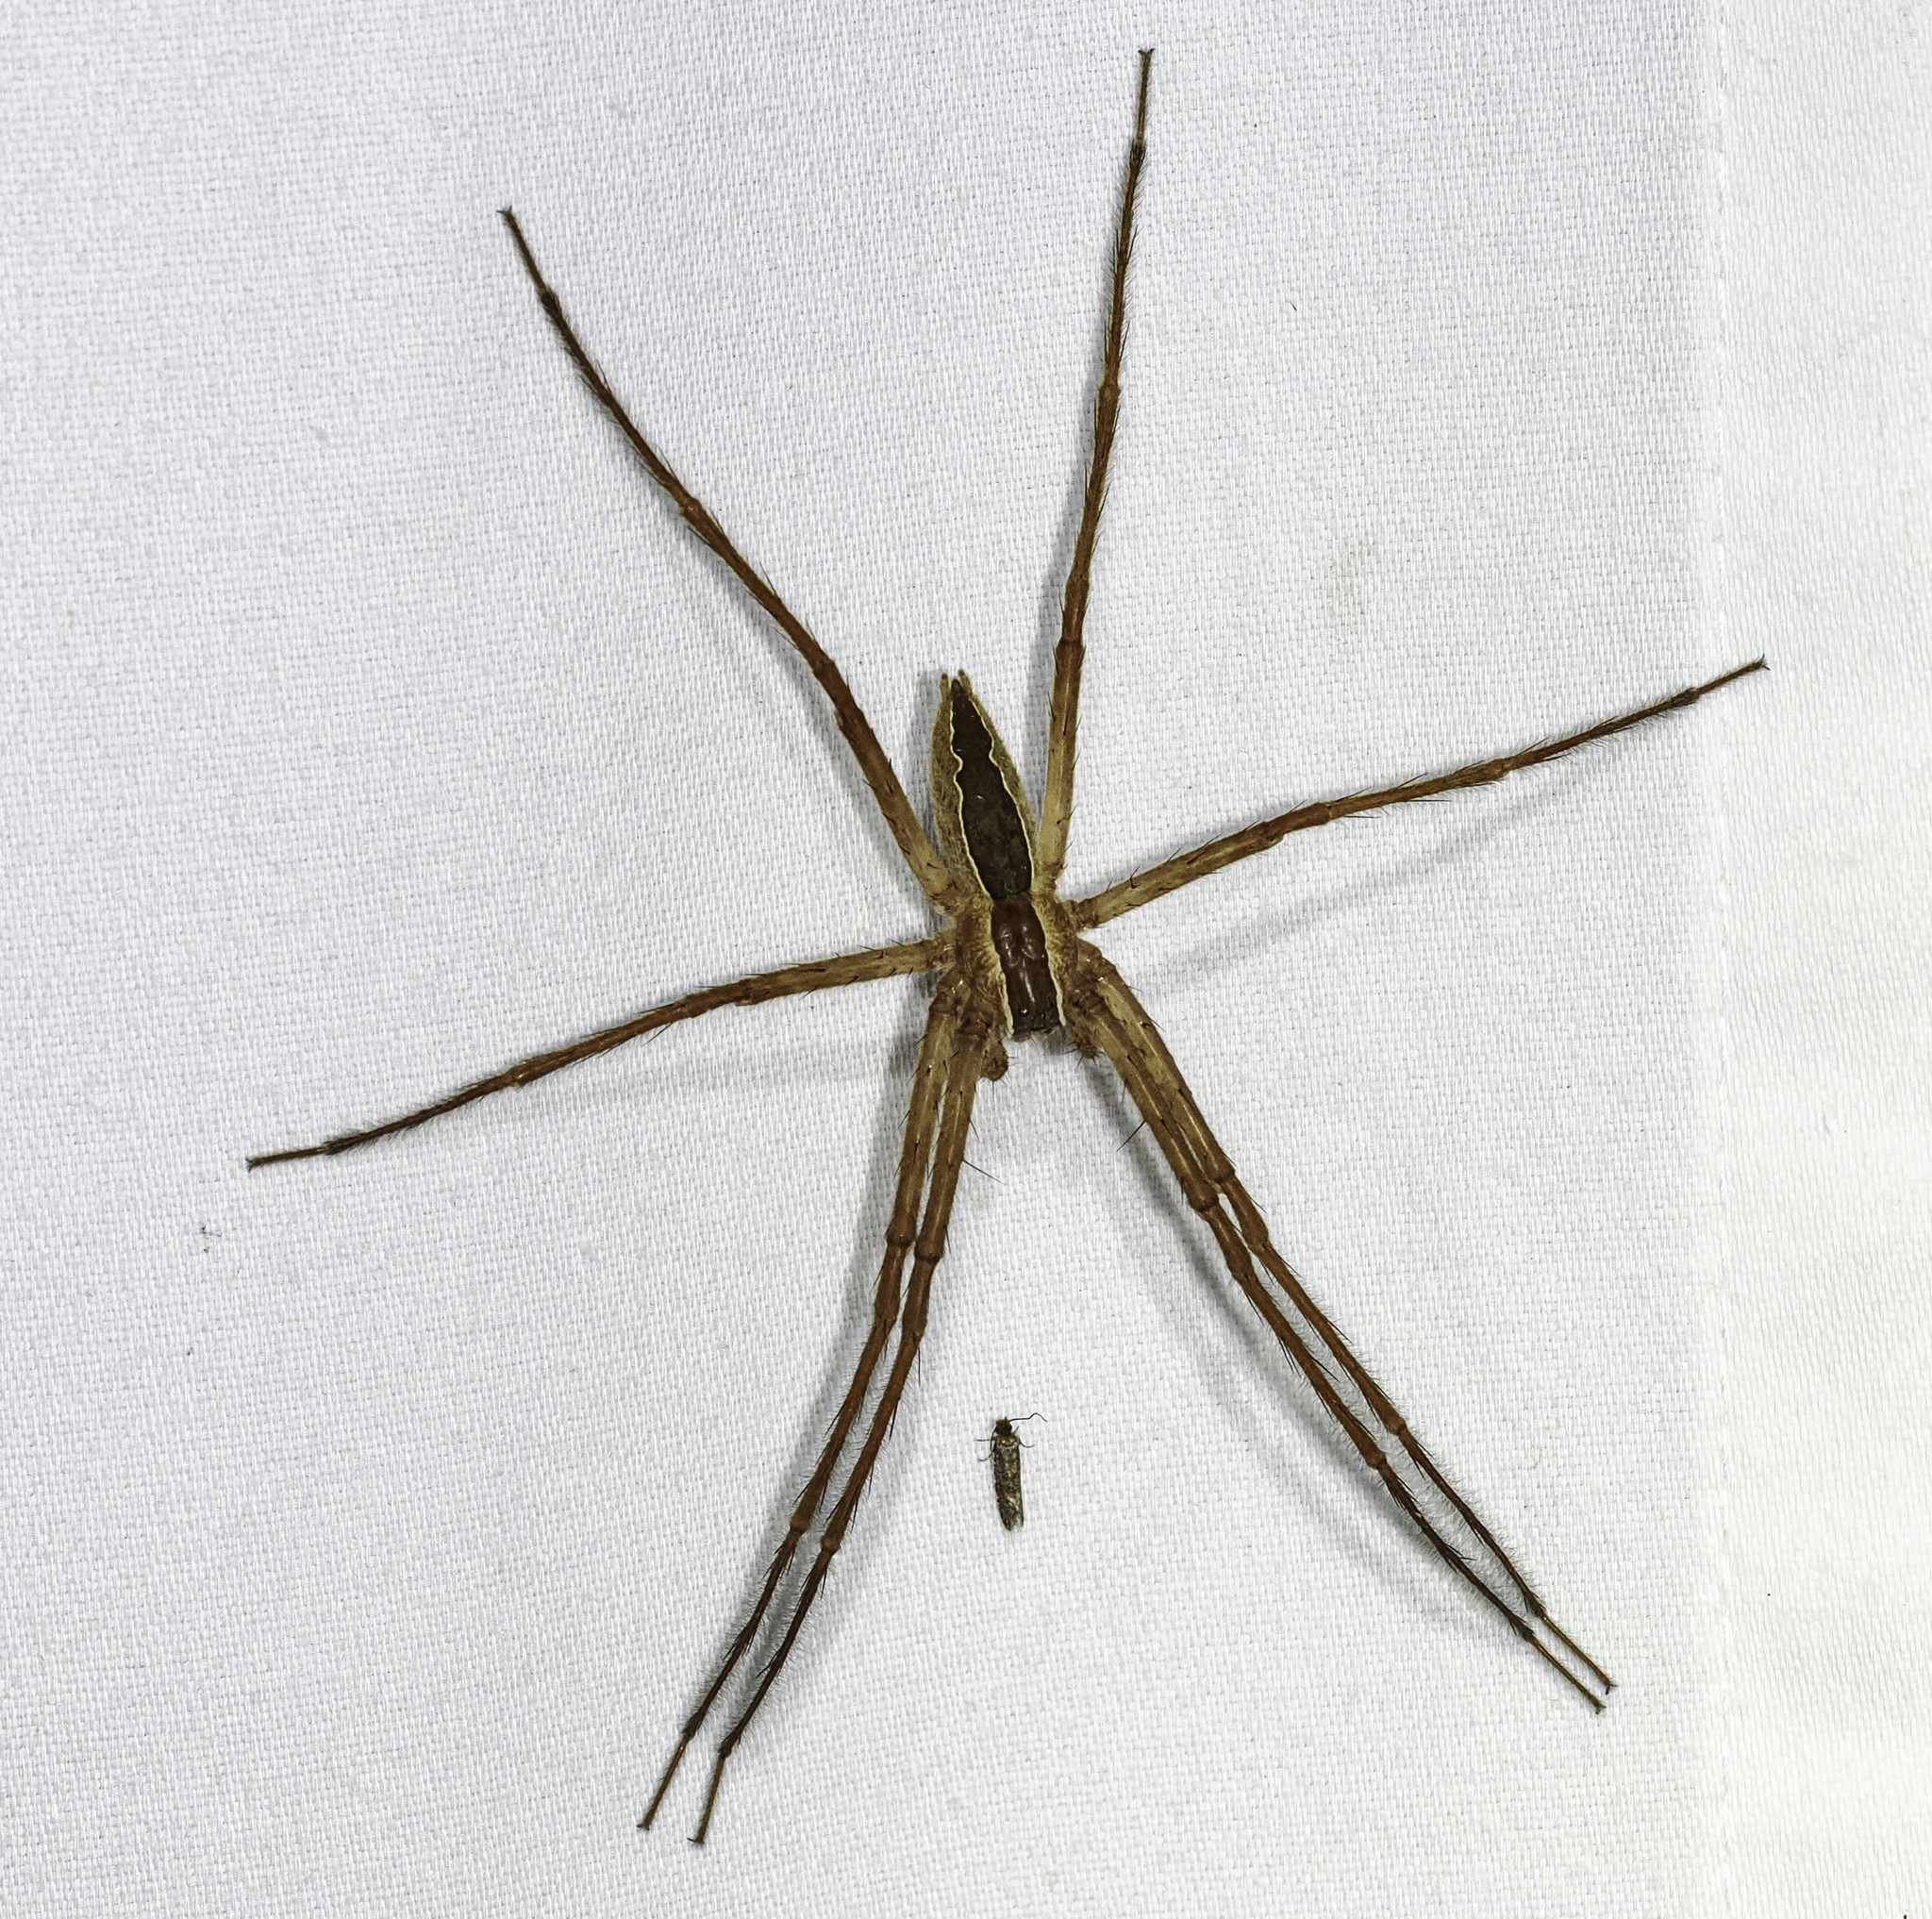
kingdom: Animalia
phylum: Arthropoda
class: Arachnida
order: Araneae
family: Pisauridae
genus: Pisaurina
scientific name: Pisaurina mira
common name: American nursery web spider
